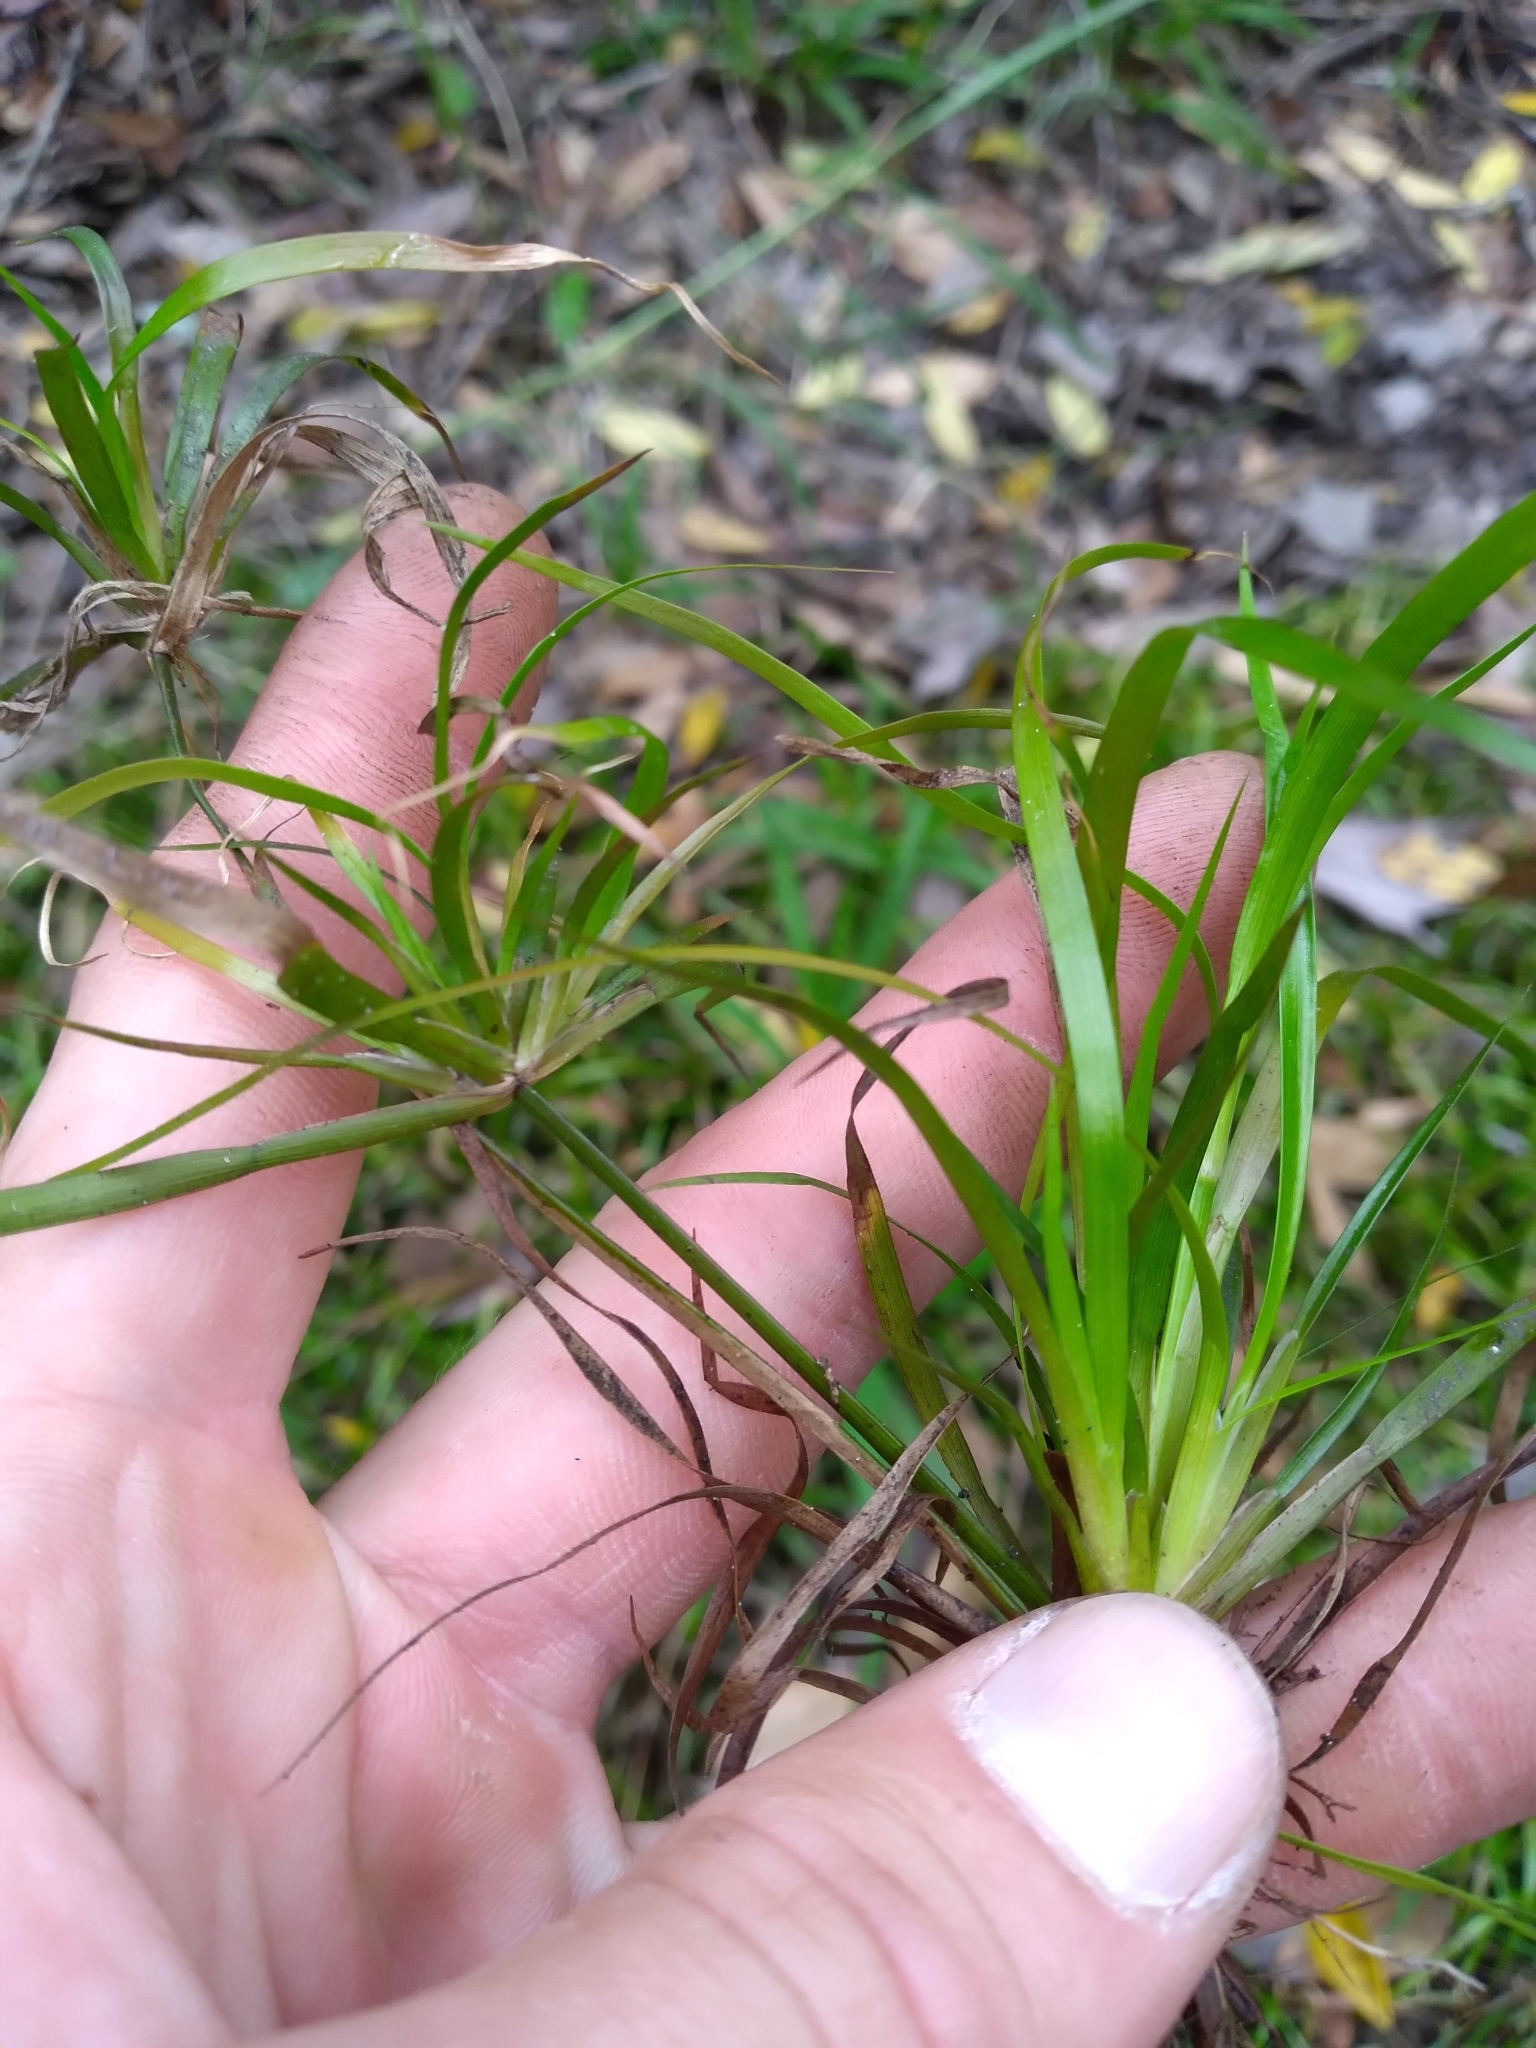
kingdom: Plantae
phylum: Tracheophyta
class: Liliopsida
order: Poales
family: Juncaceae
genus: Juncus
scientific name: Juncus repens
